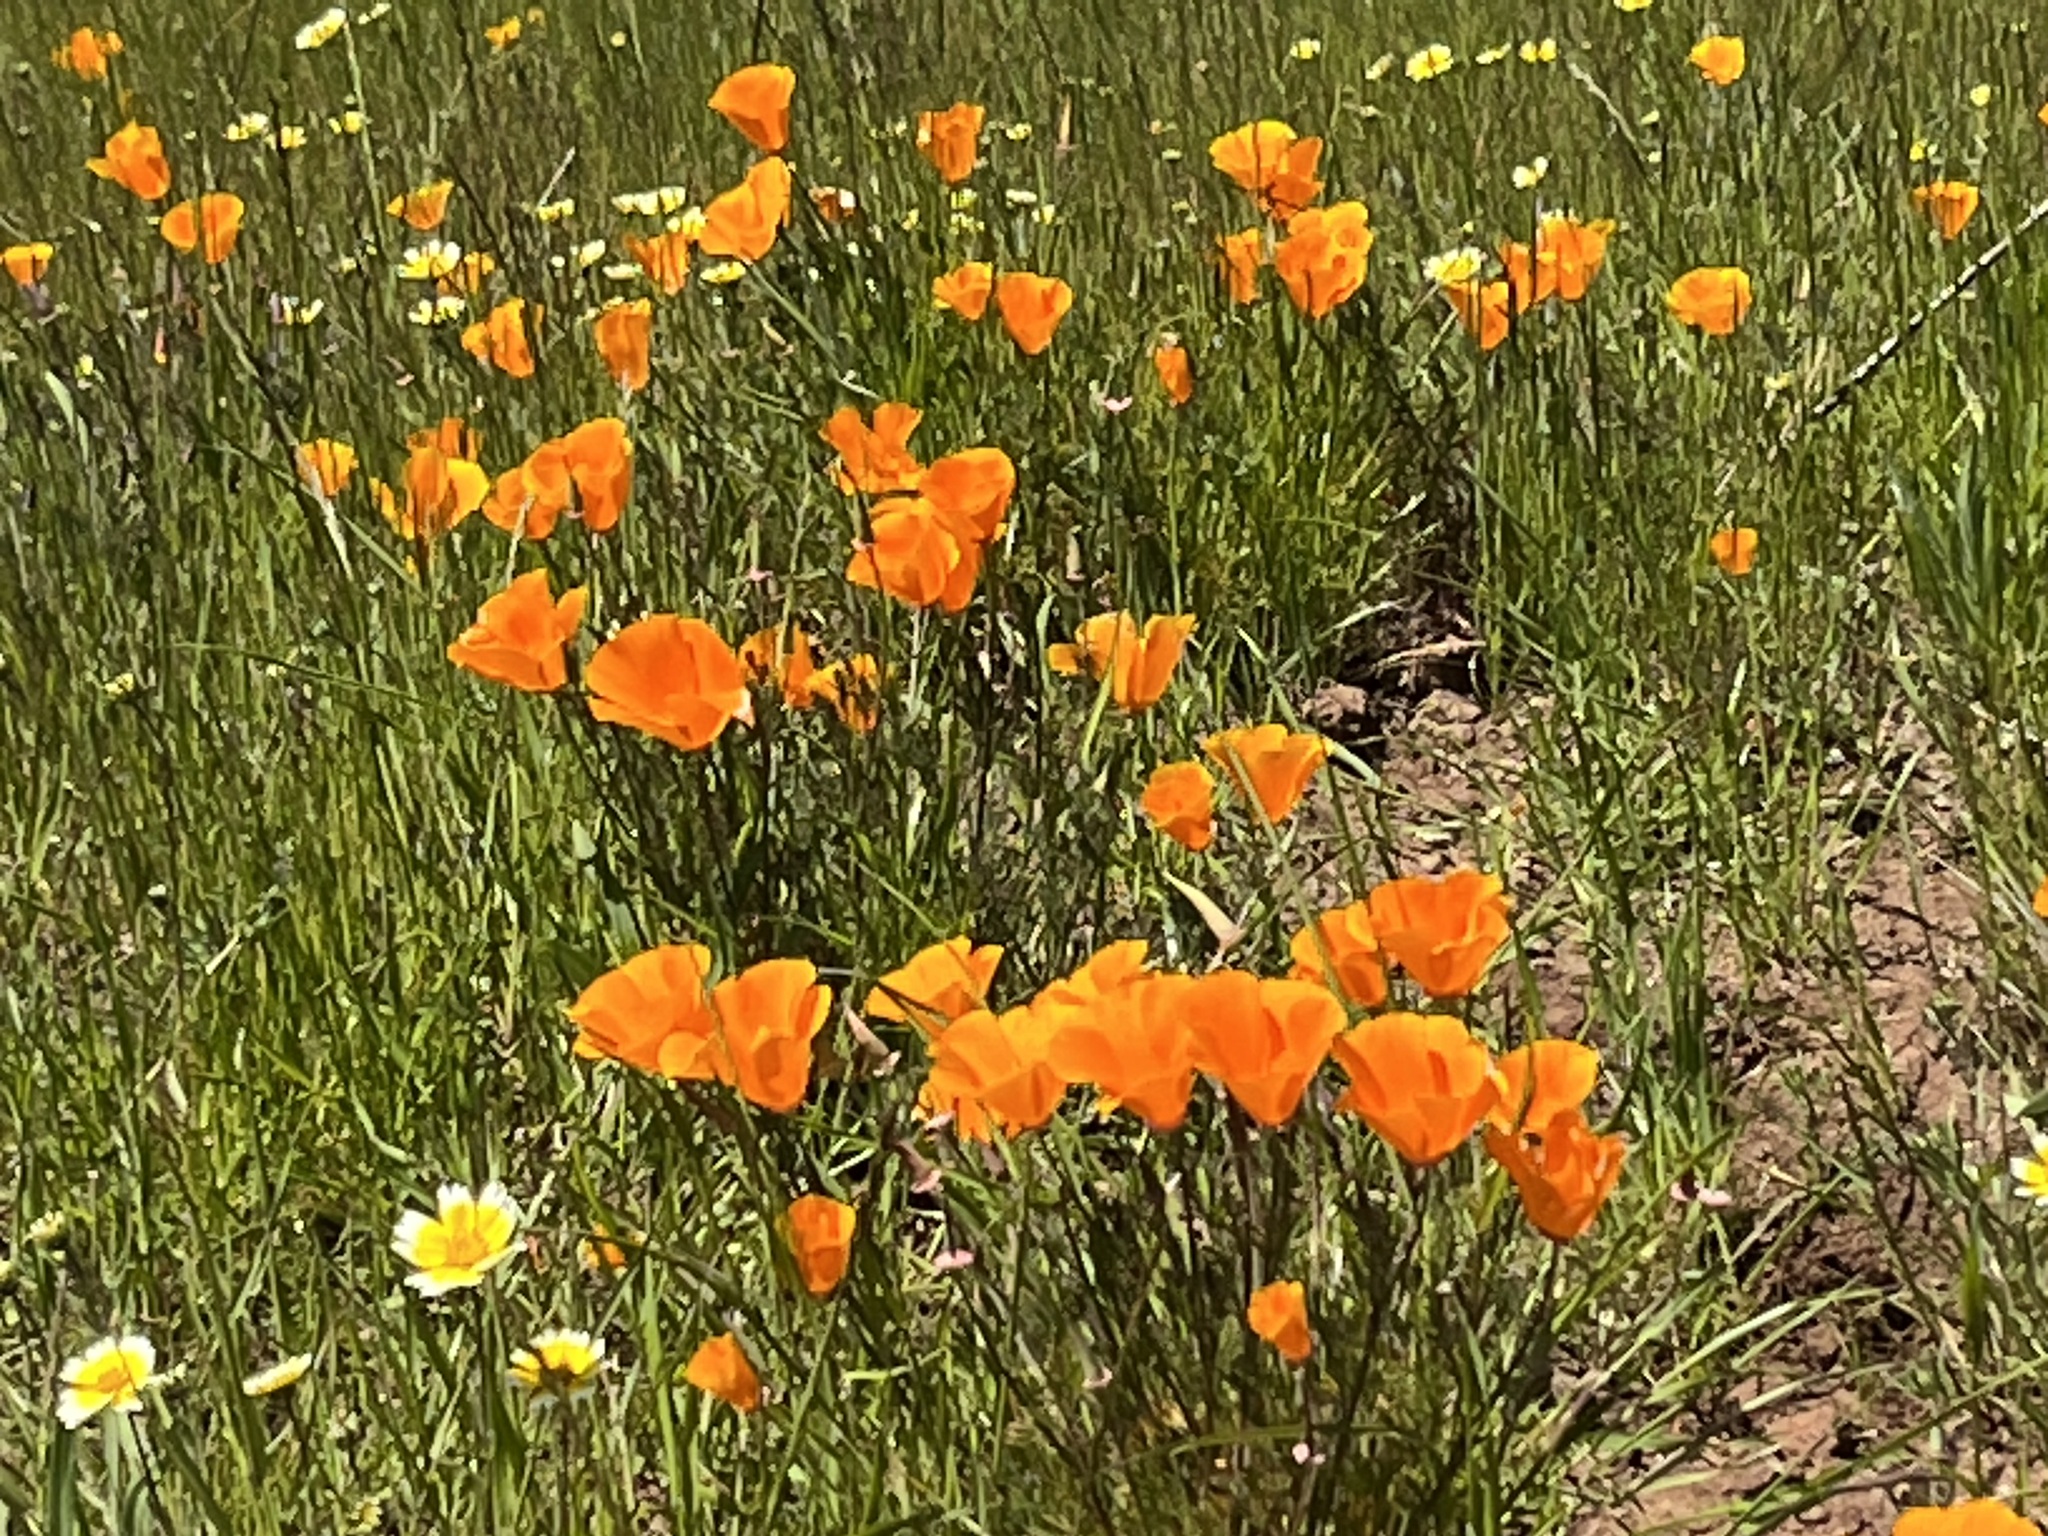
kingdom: Plantae
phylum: Tracheophyta
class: Magnoliopsida
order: Ranunculales
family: Papaveraceae
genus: Eschscholzia
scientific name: Eschscholzia californica
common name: California poppy
